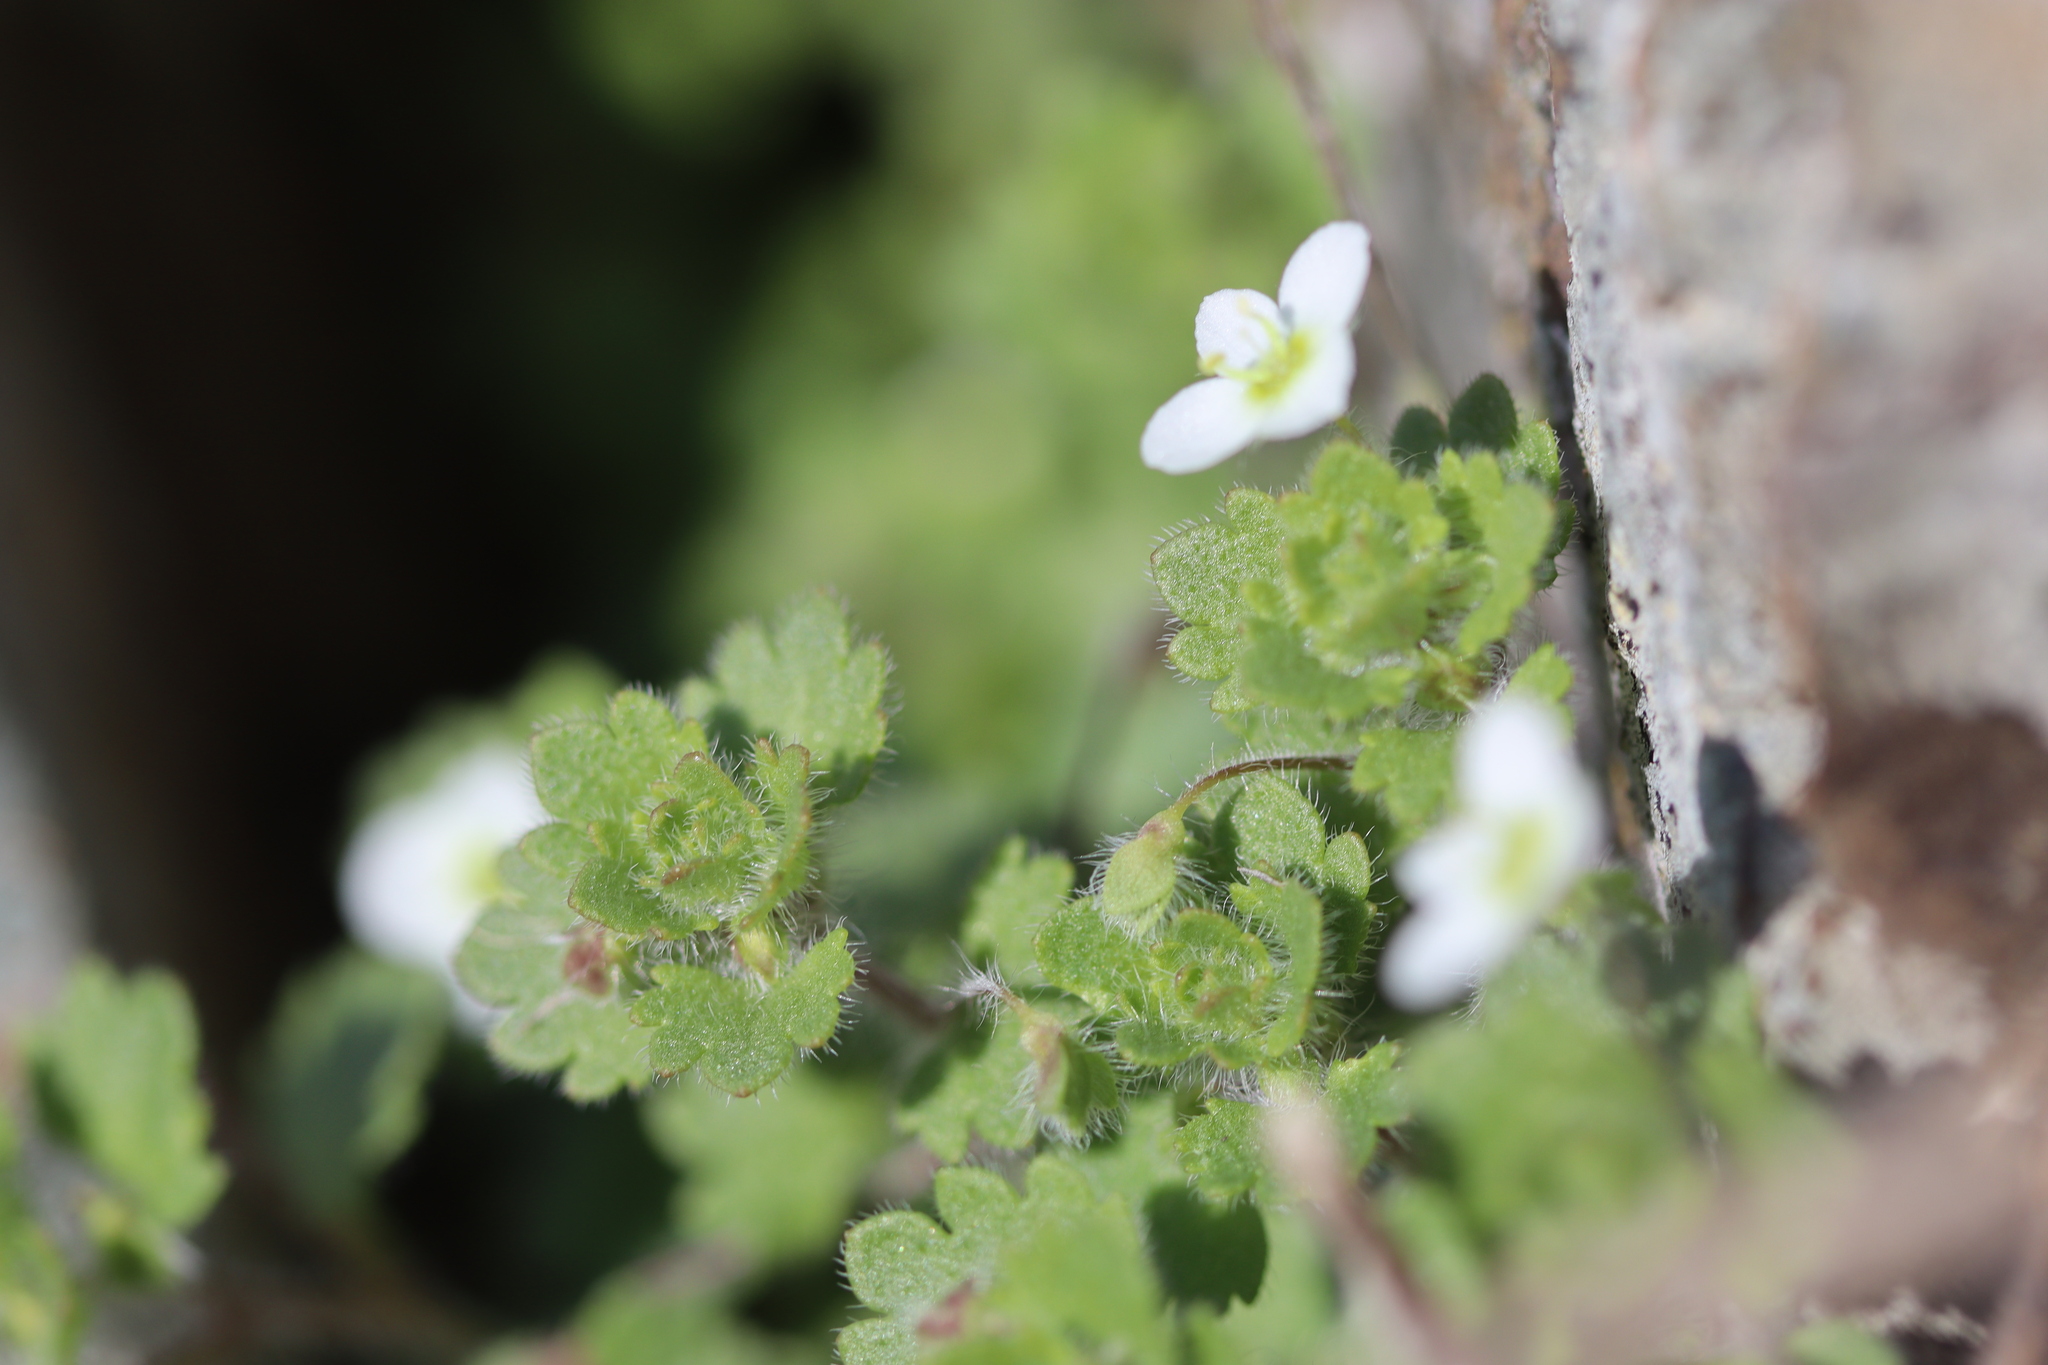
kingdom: Plantae
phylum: Tracheophyta
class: Magnoliopsida
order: Lamiales
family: Plantaginaceae
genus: Veronica
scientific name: Veronica cymbalaria
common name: Pale speedwell
